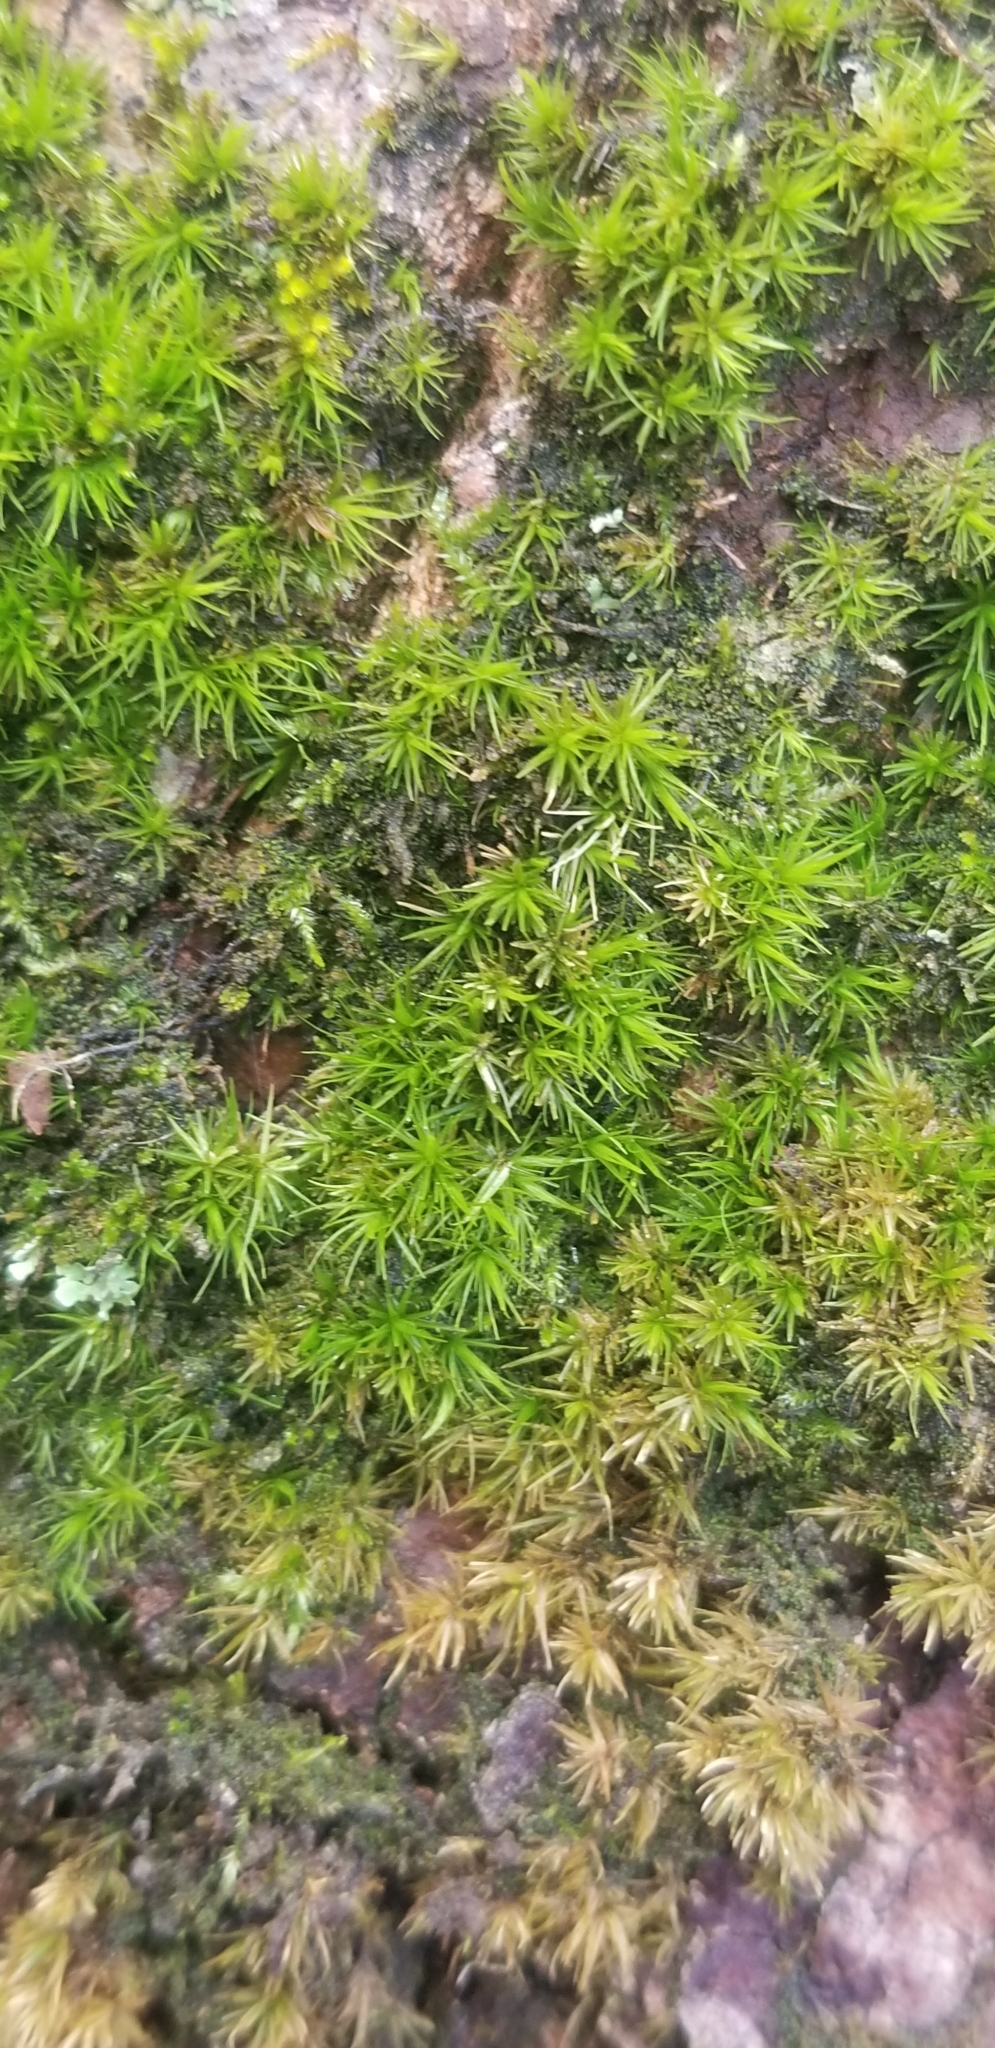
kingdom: Plantae
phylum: Bryophyta
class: Bryopsida
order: Dicranales
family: Dicranaceae
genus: Dicranum
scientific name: Dicranum viride
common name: Green broom moss
